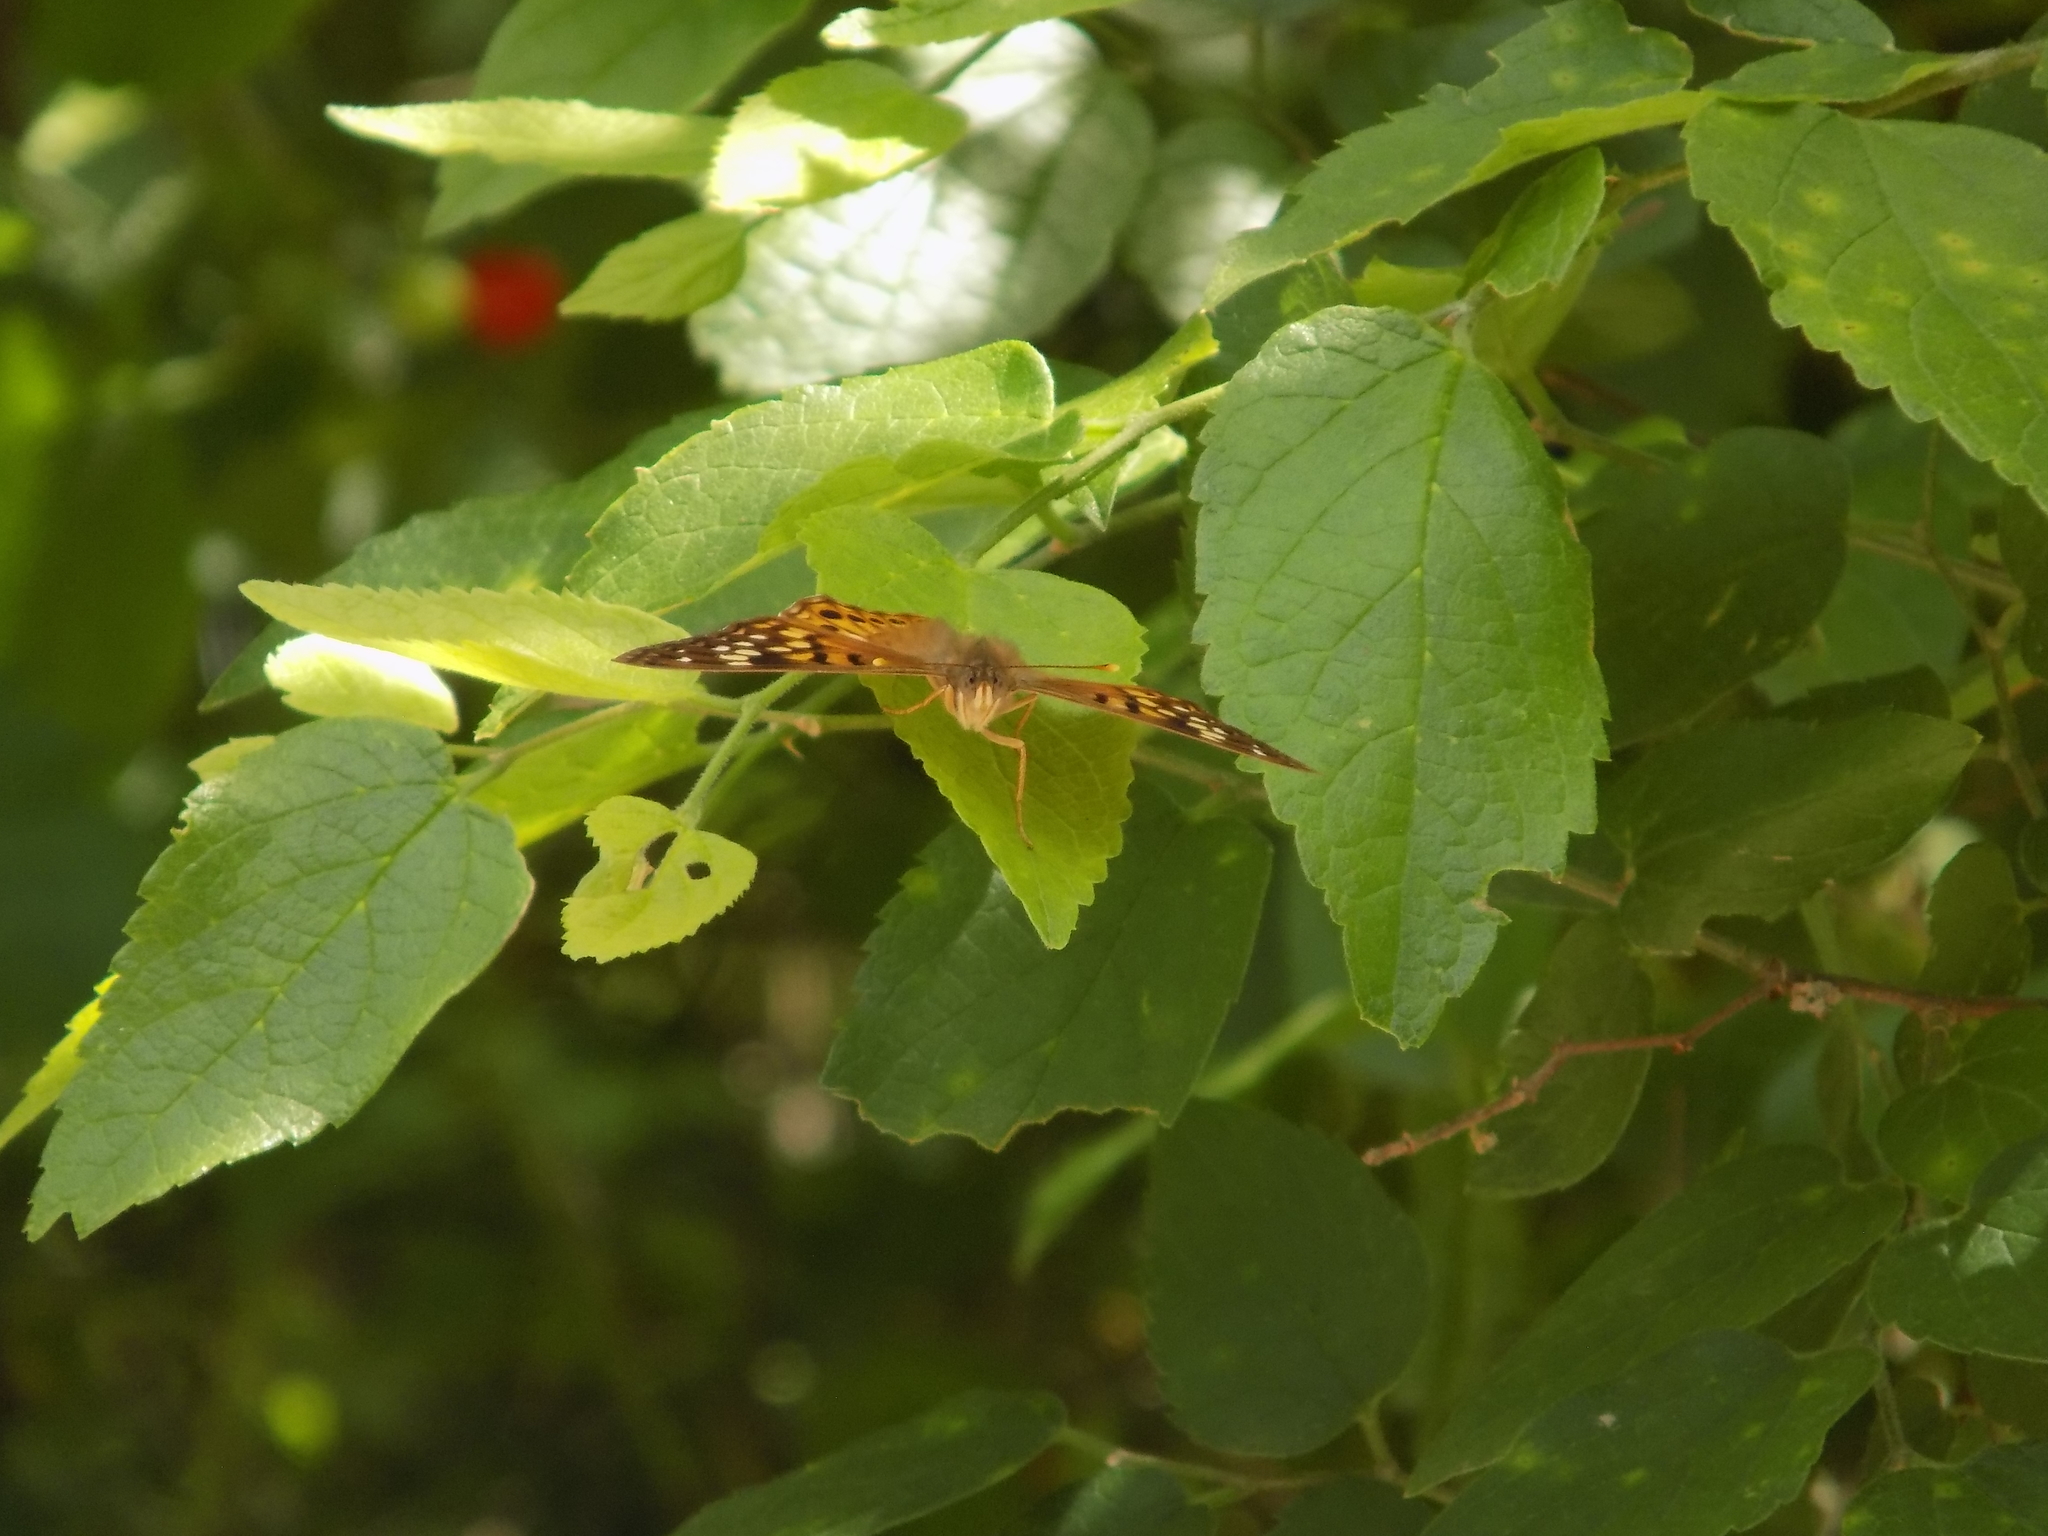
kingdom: Animalia
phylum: Arthropoda
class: Insecta
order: Lepidoptera
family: Nymphalidae
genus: Asterocampa
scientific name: Asterocampa clyton
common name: Tawny emperor
